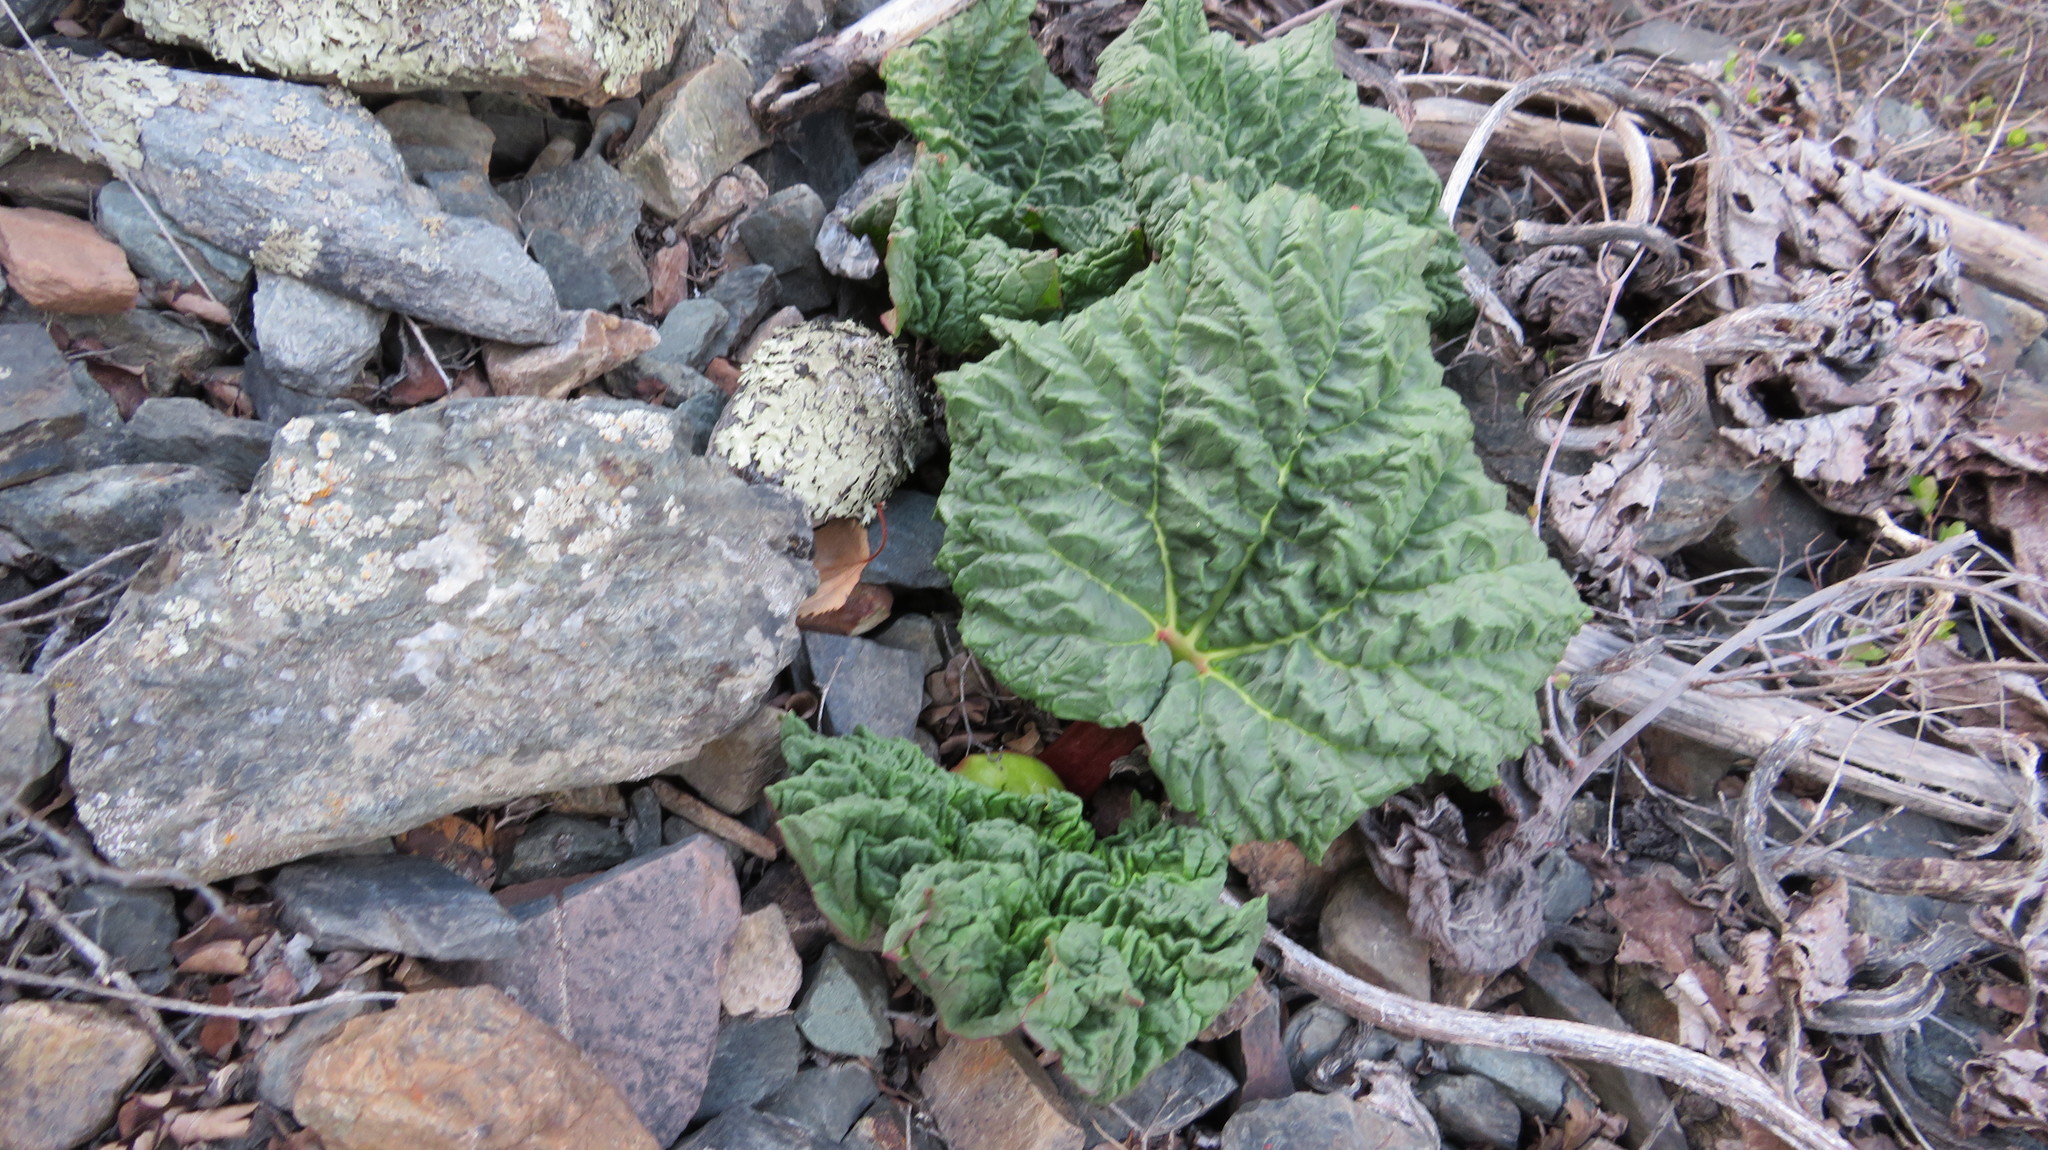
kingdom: Plantae
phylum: Tracheophyta
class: Magnoliopsida
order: Caryophyllales
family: Polygonaceae
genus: Rheum
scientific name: Rheum compactum
